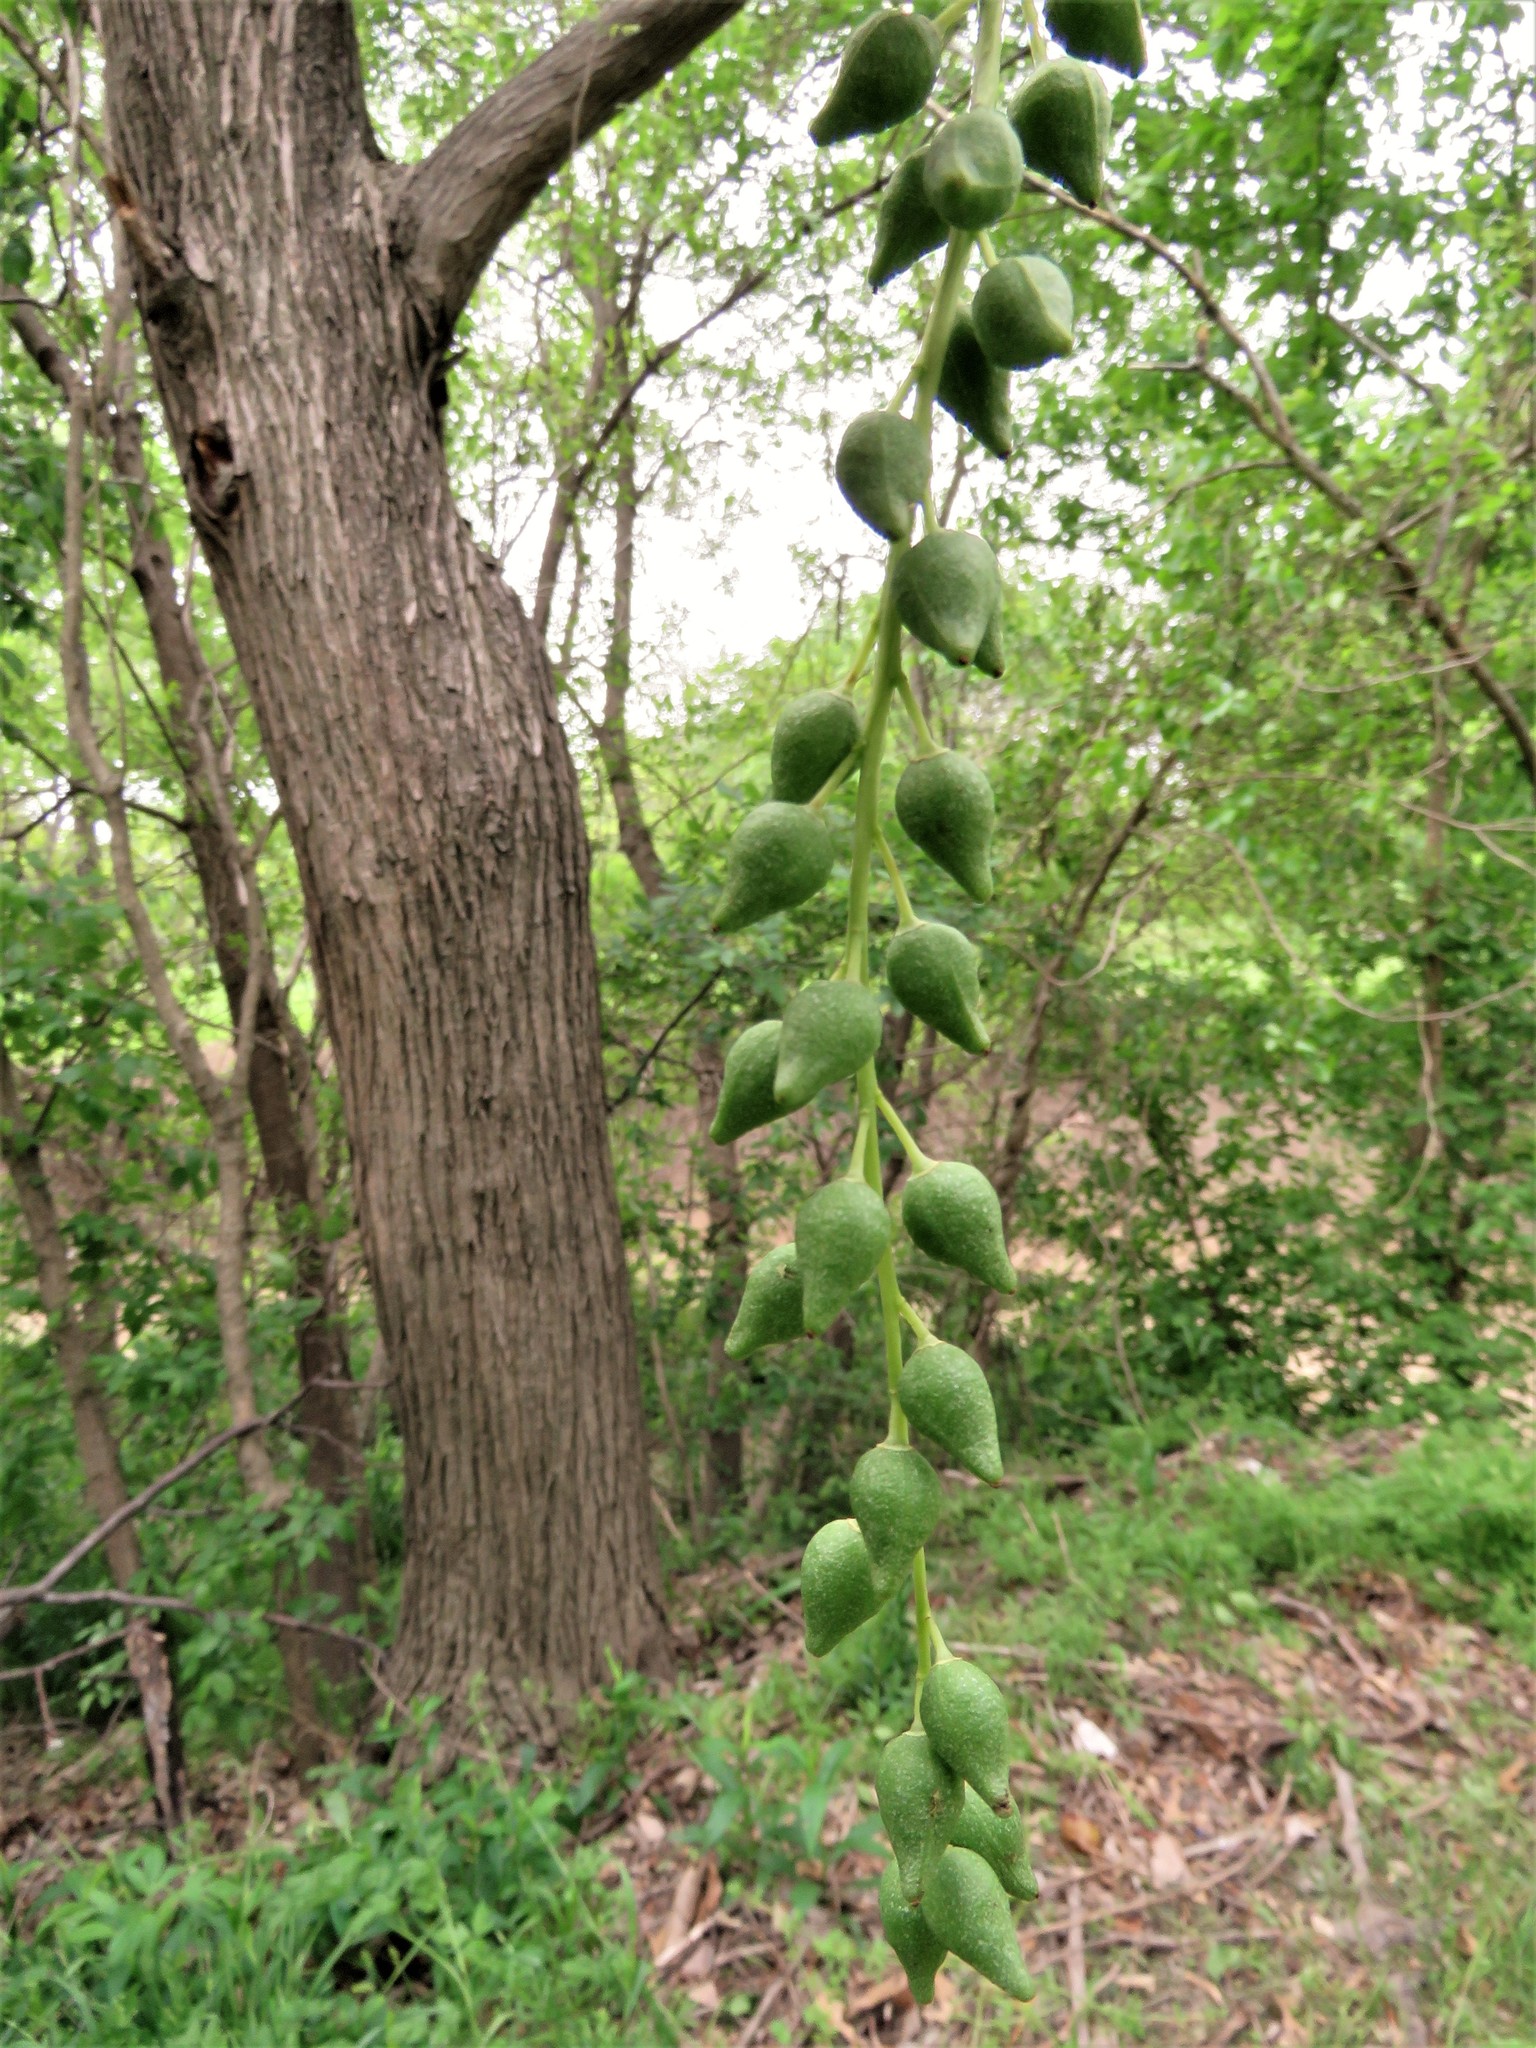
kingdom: Plantae
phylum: Tracheophyta
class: Magnoliopsida
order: Malpighiales
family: Salicaceae
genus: Populus
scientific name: Populus deltoides
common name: Eastern cottonwood
